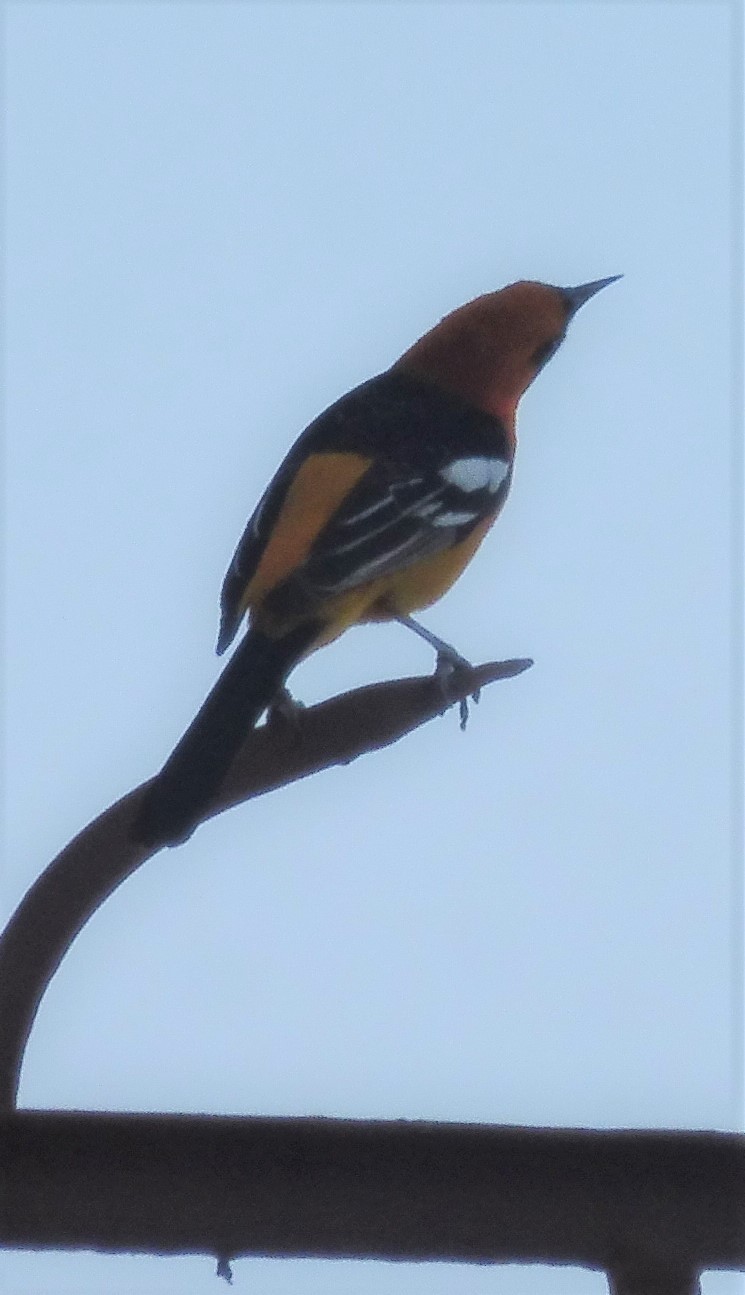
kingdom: Animalia
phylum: Chordata
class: Aves
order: Passeriformes
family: Icteridae
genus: Icterus
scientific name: Icterus cucullatus
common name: Hooded oriole
